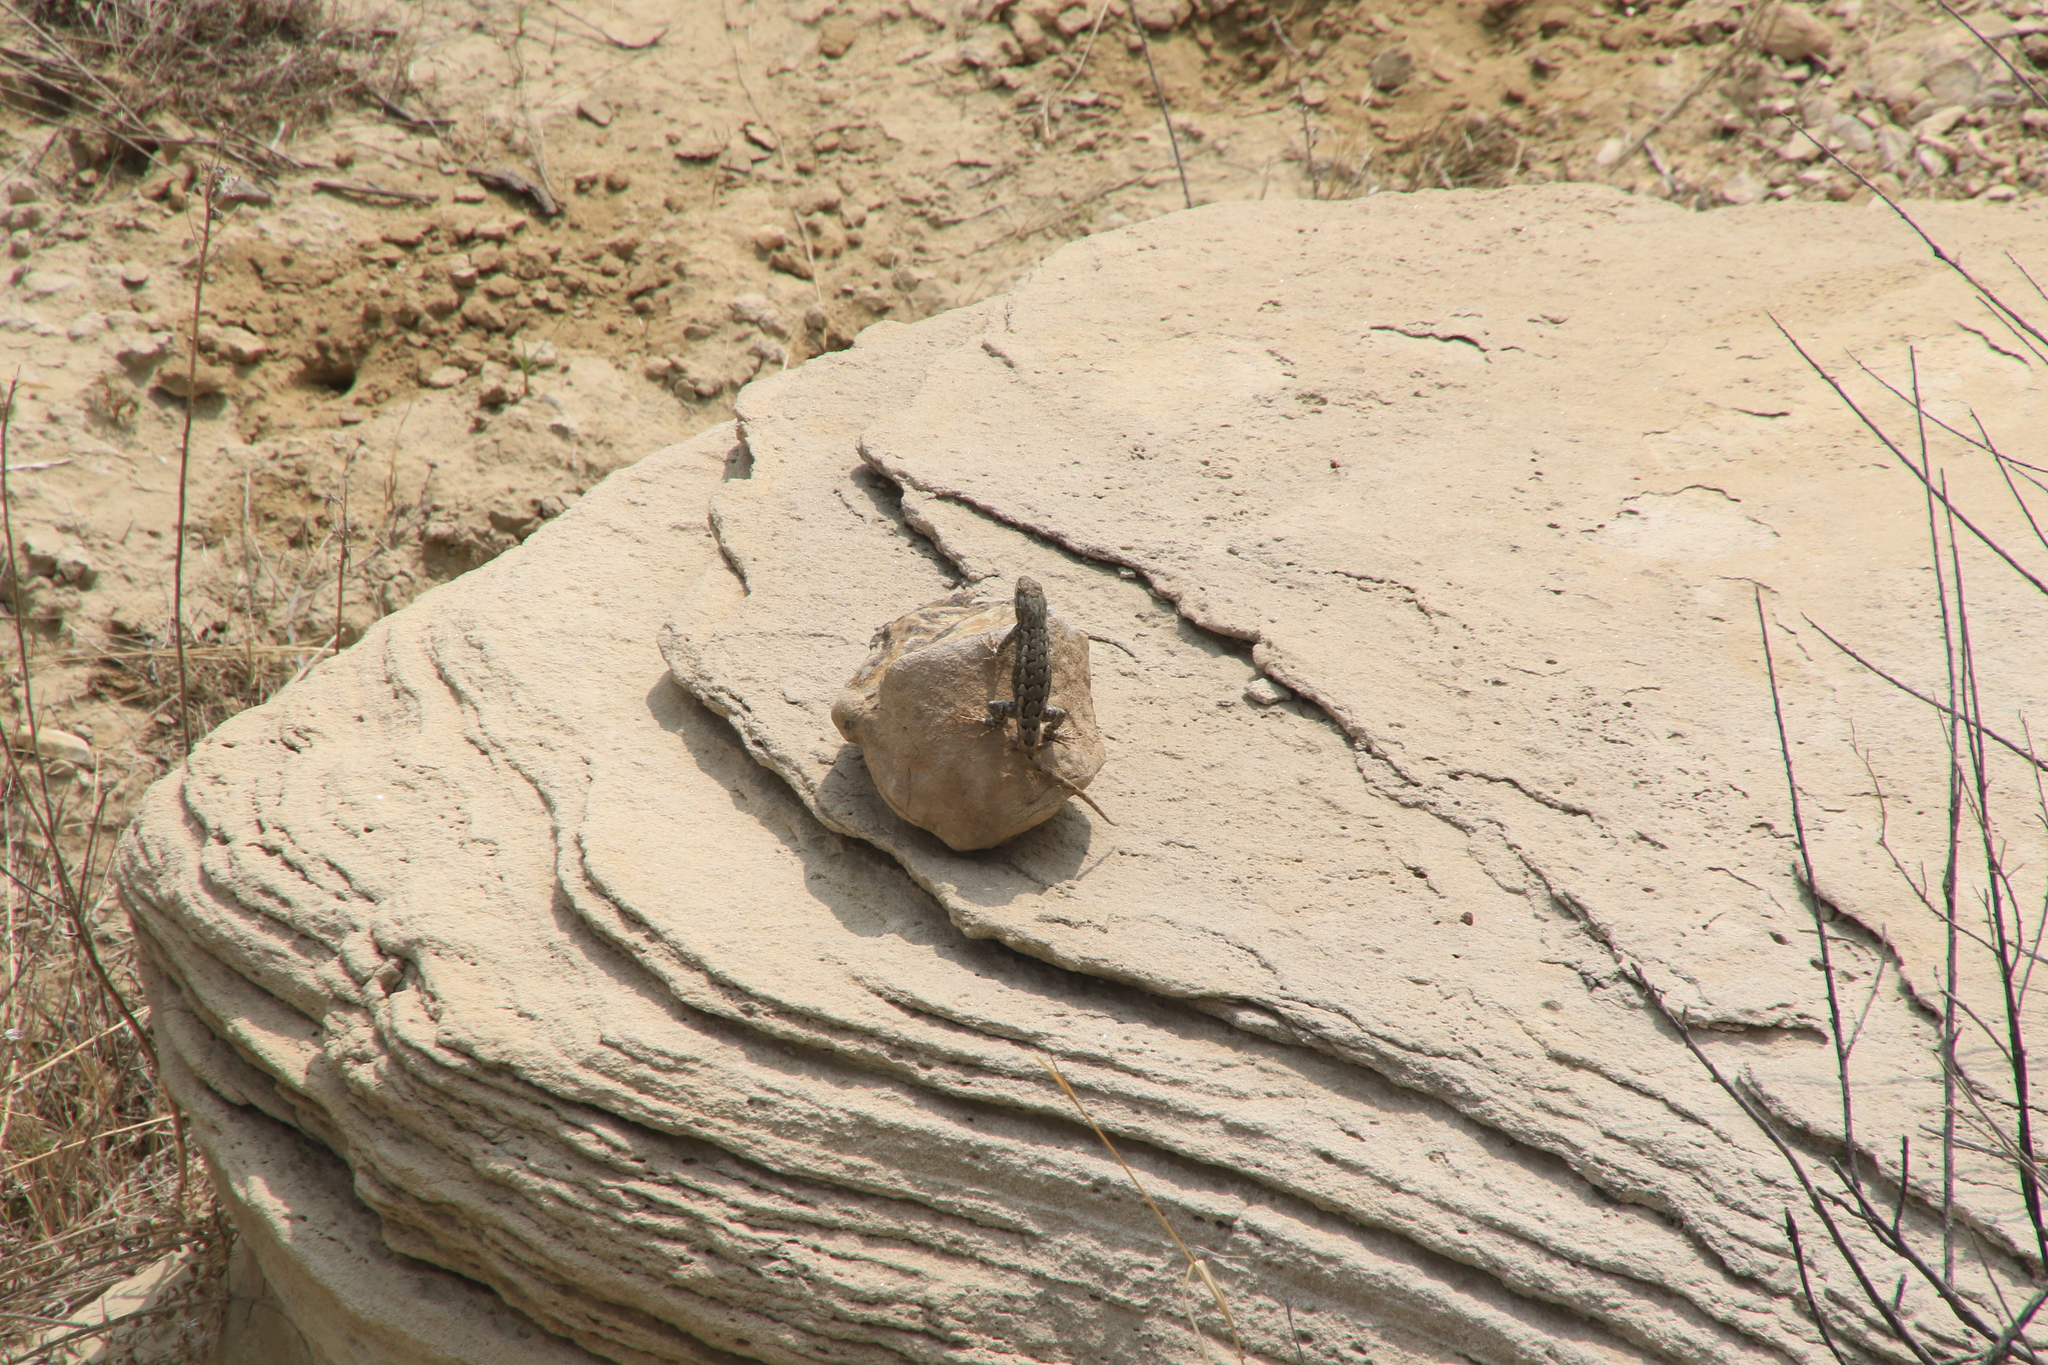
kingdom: Animalia
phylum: Chordata
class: Squamata
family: Phrynosomatidae
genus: Sceloporus
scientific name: Sceloporus consobrinus
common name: Southern prairie lizard
